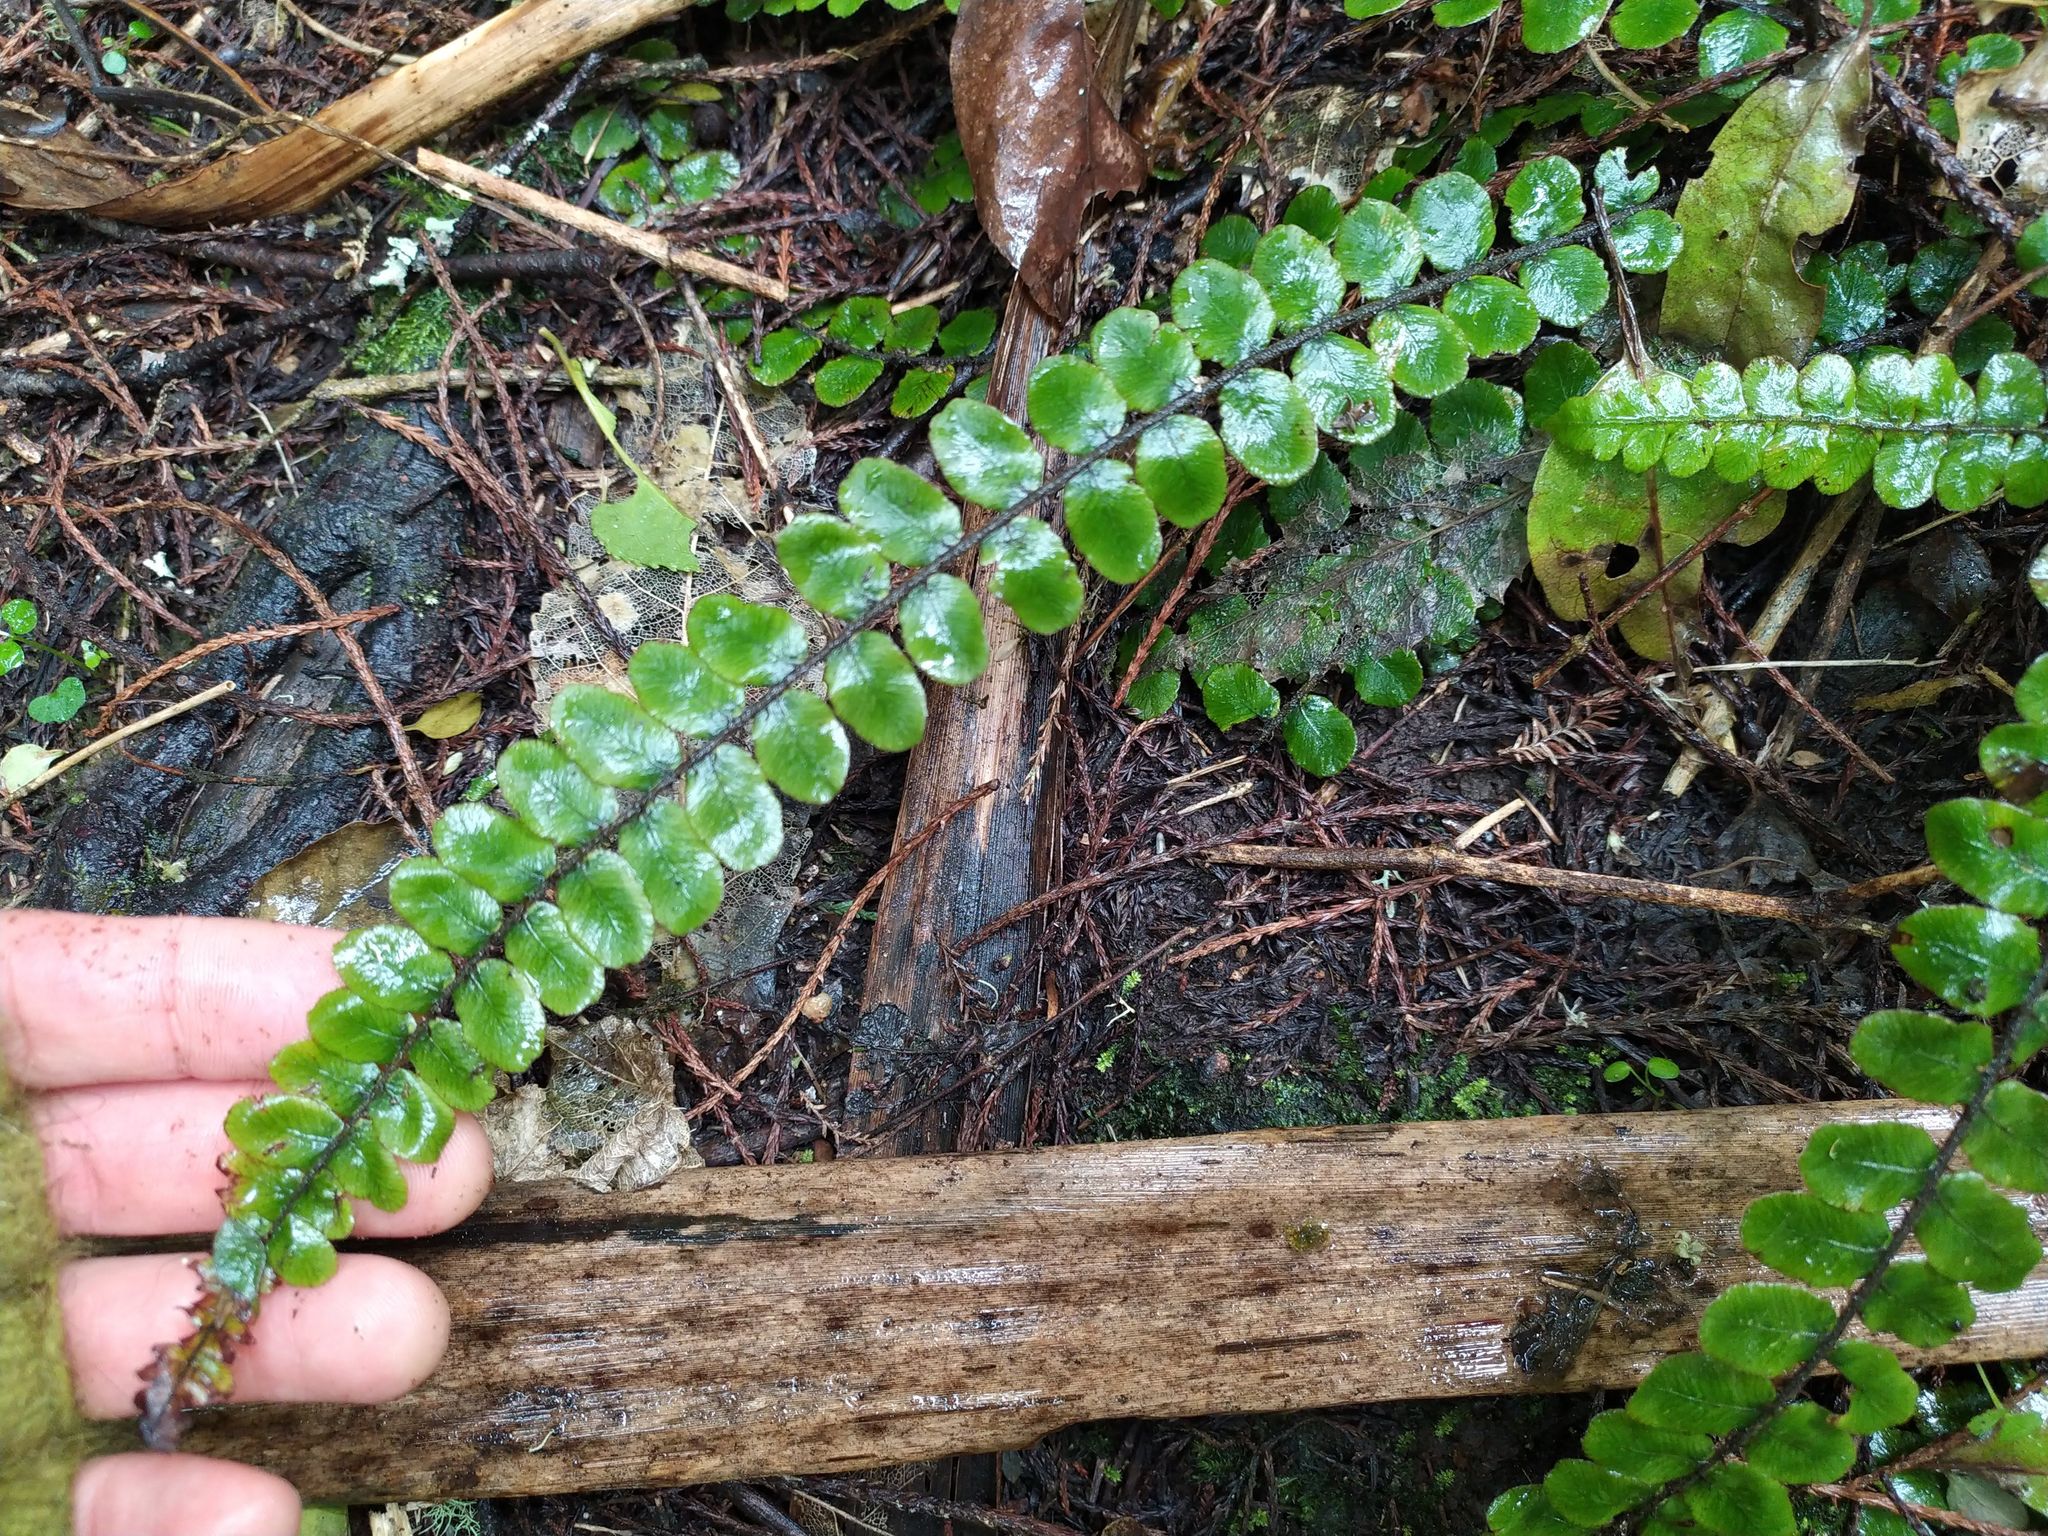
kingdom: Plantae
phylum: Tracheophyta
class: Polypodiopsida
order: Polypodiales
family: Blechnaceae
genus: Cranfillia
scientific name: Cranfillia fluviatilis
